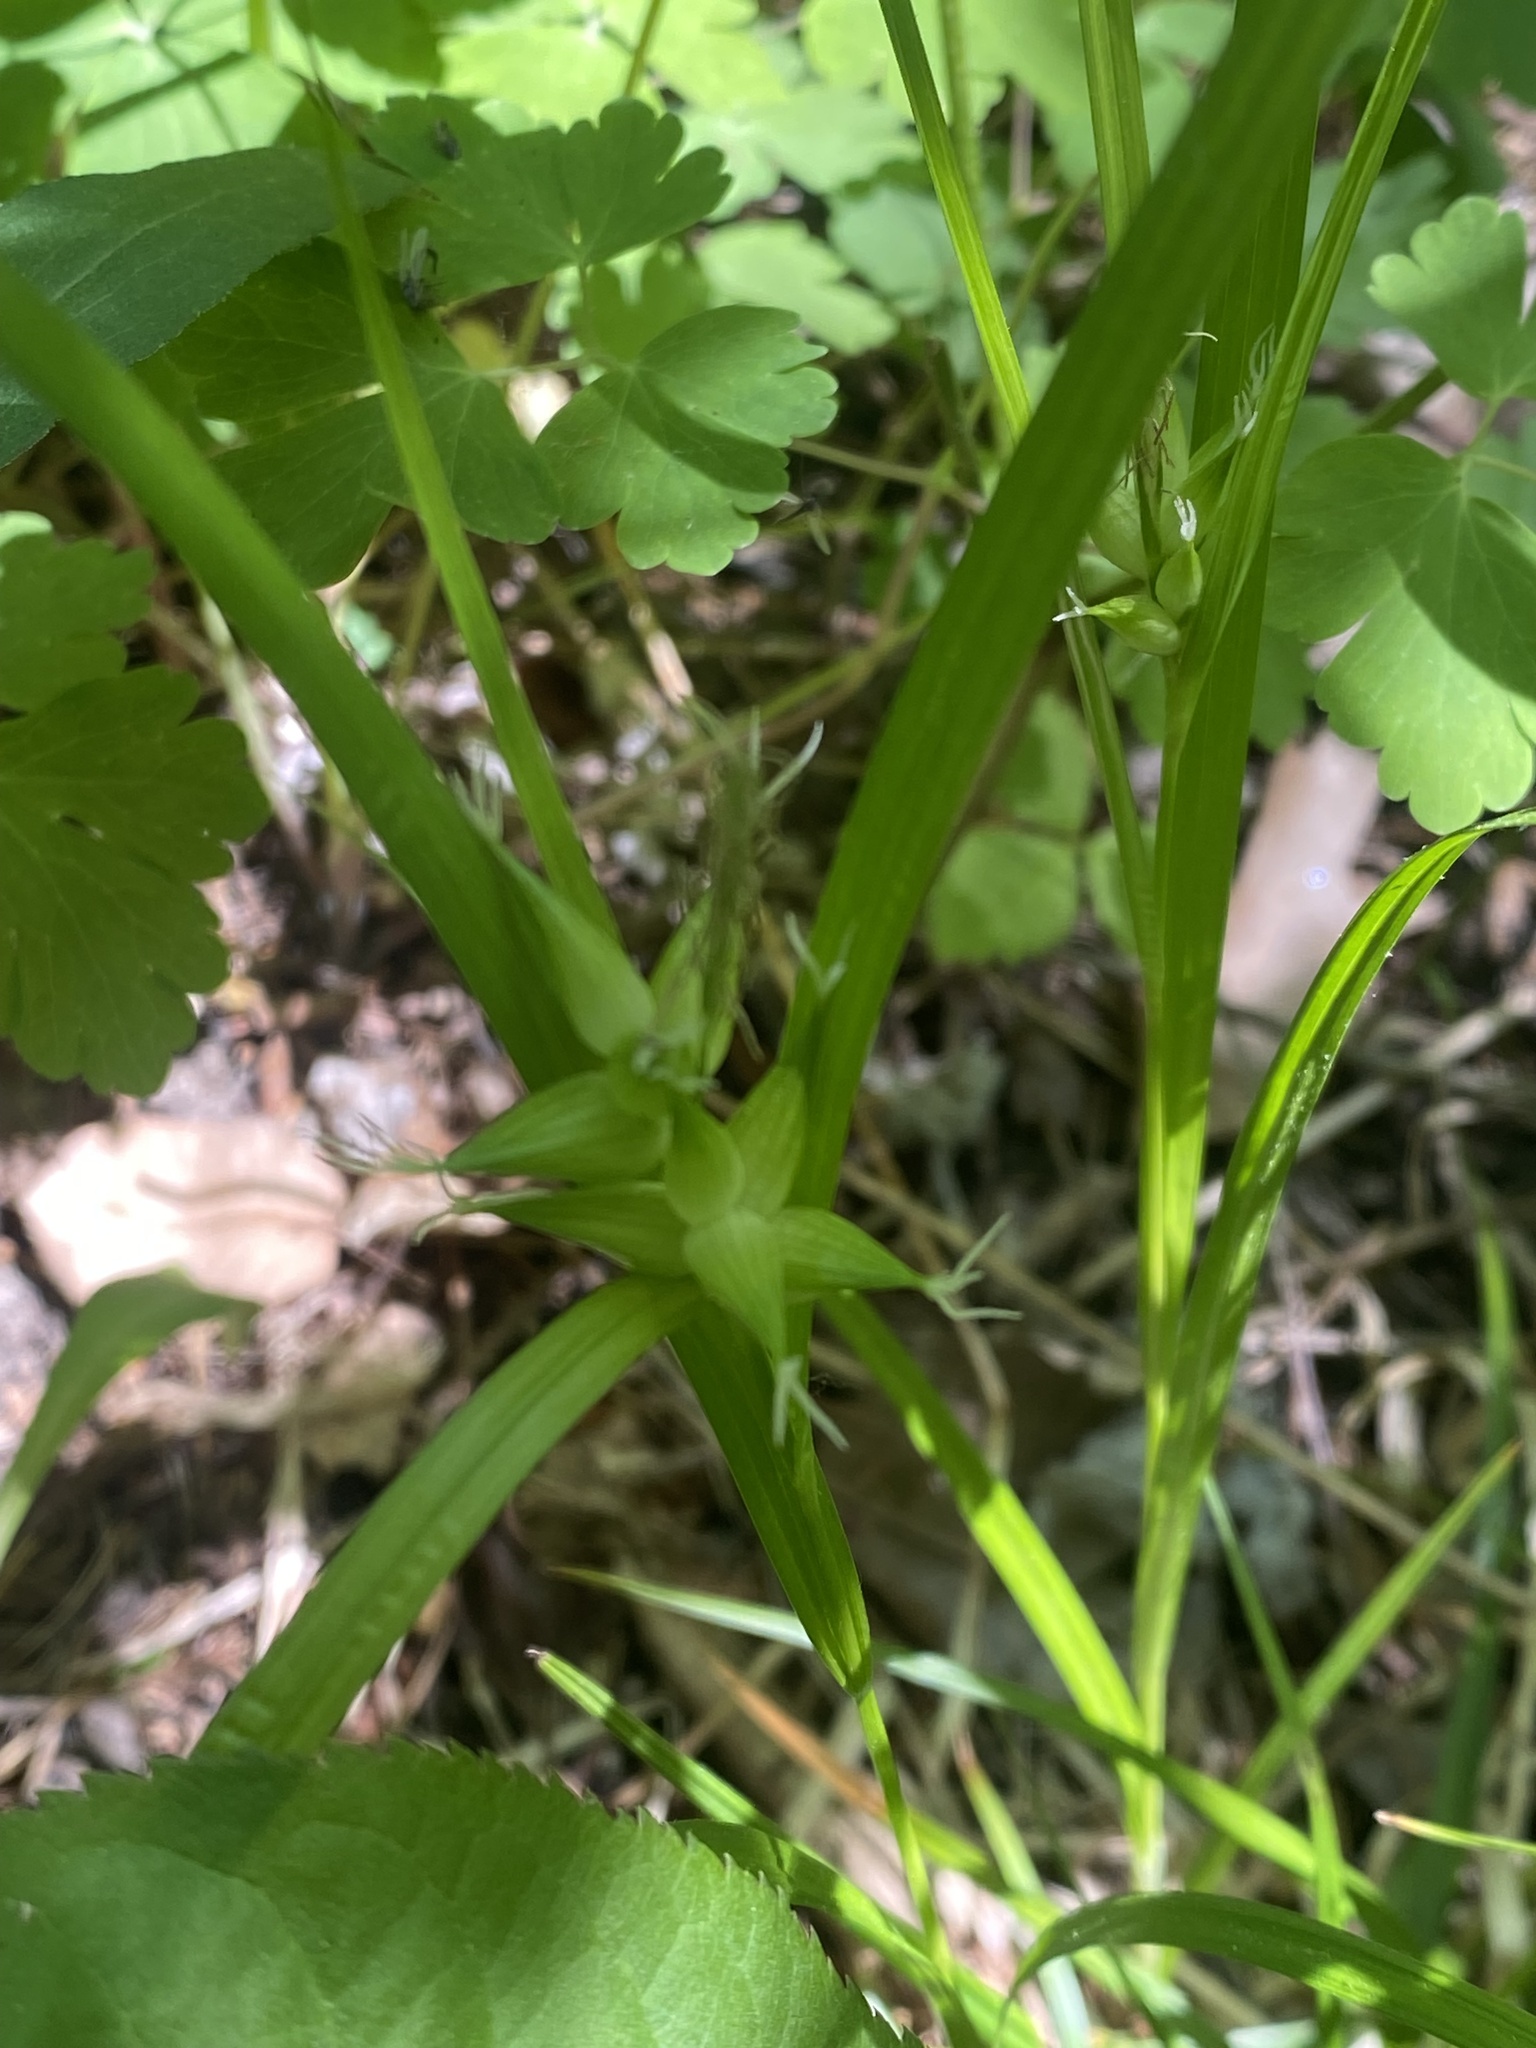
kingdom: Plantae
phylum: Tracheophyta
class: Liliopsida
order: Poales
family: Cyperaceae
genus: Carex
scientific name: Carex intumescens
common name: Greater bladder sedge
